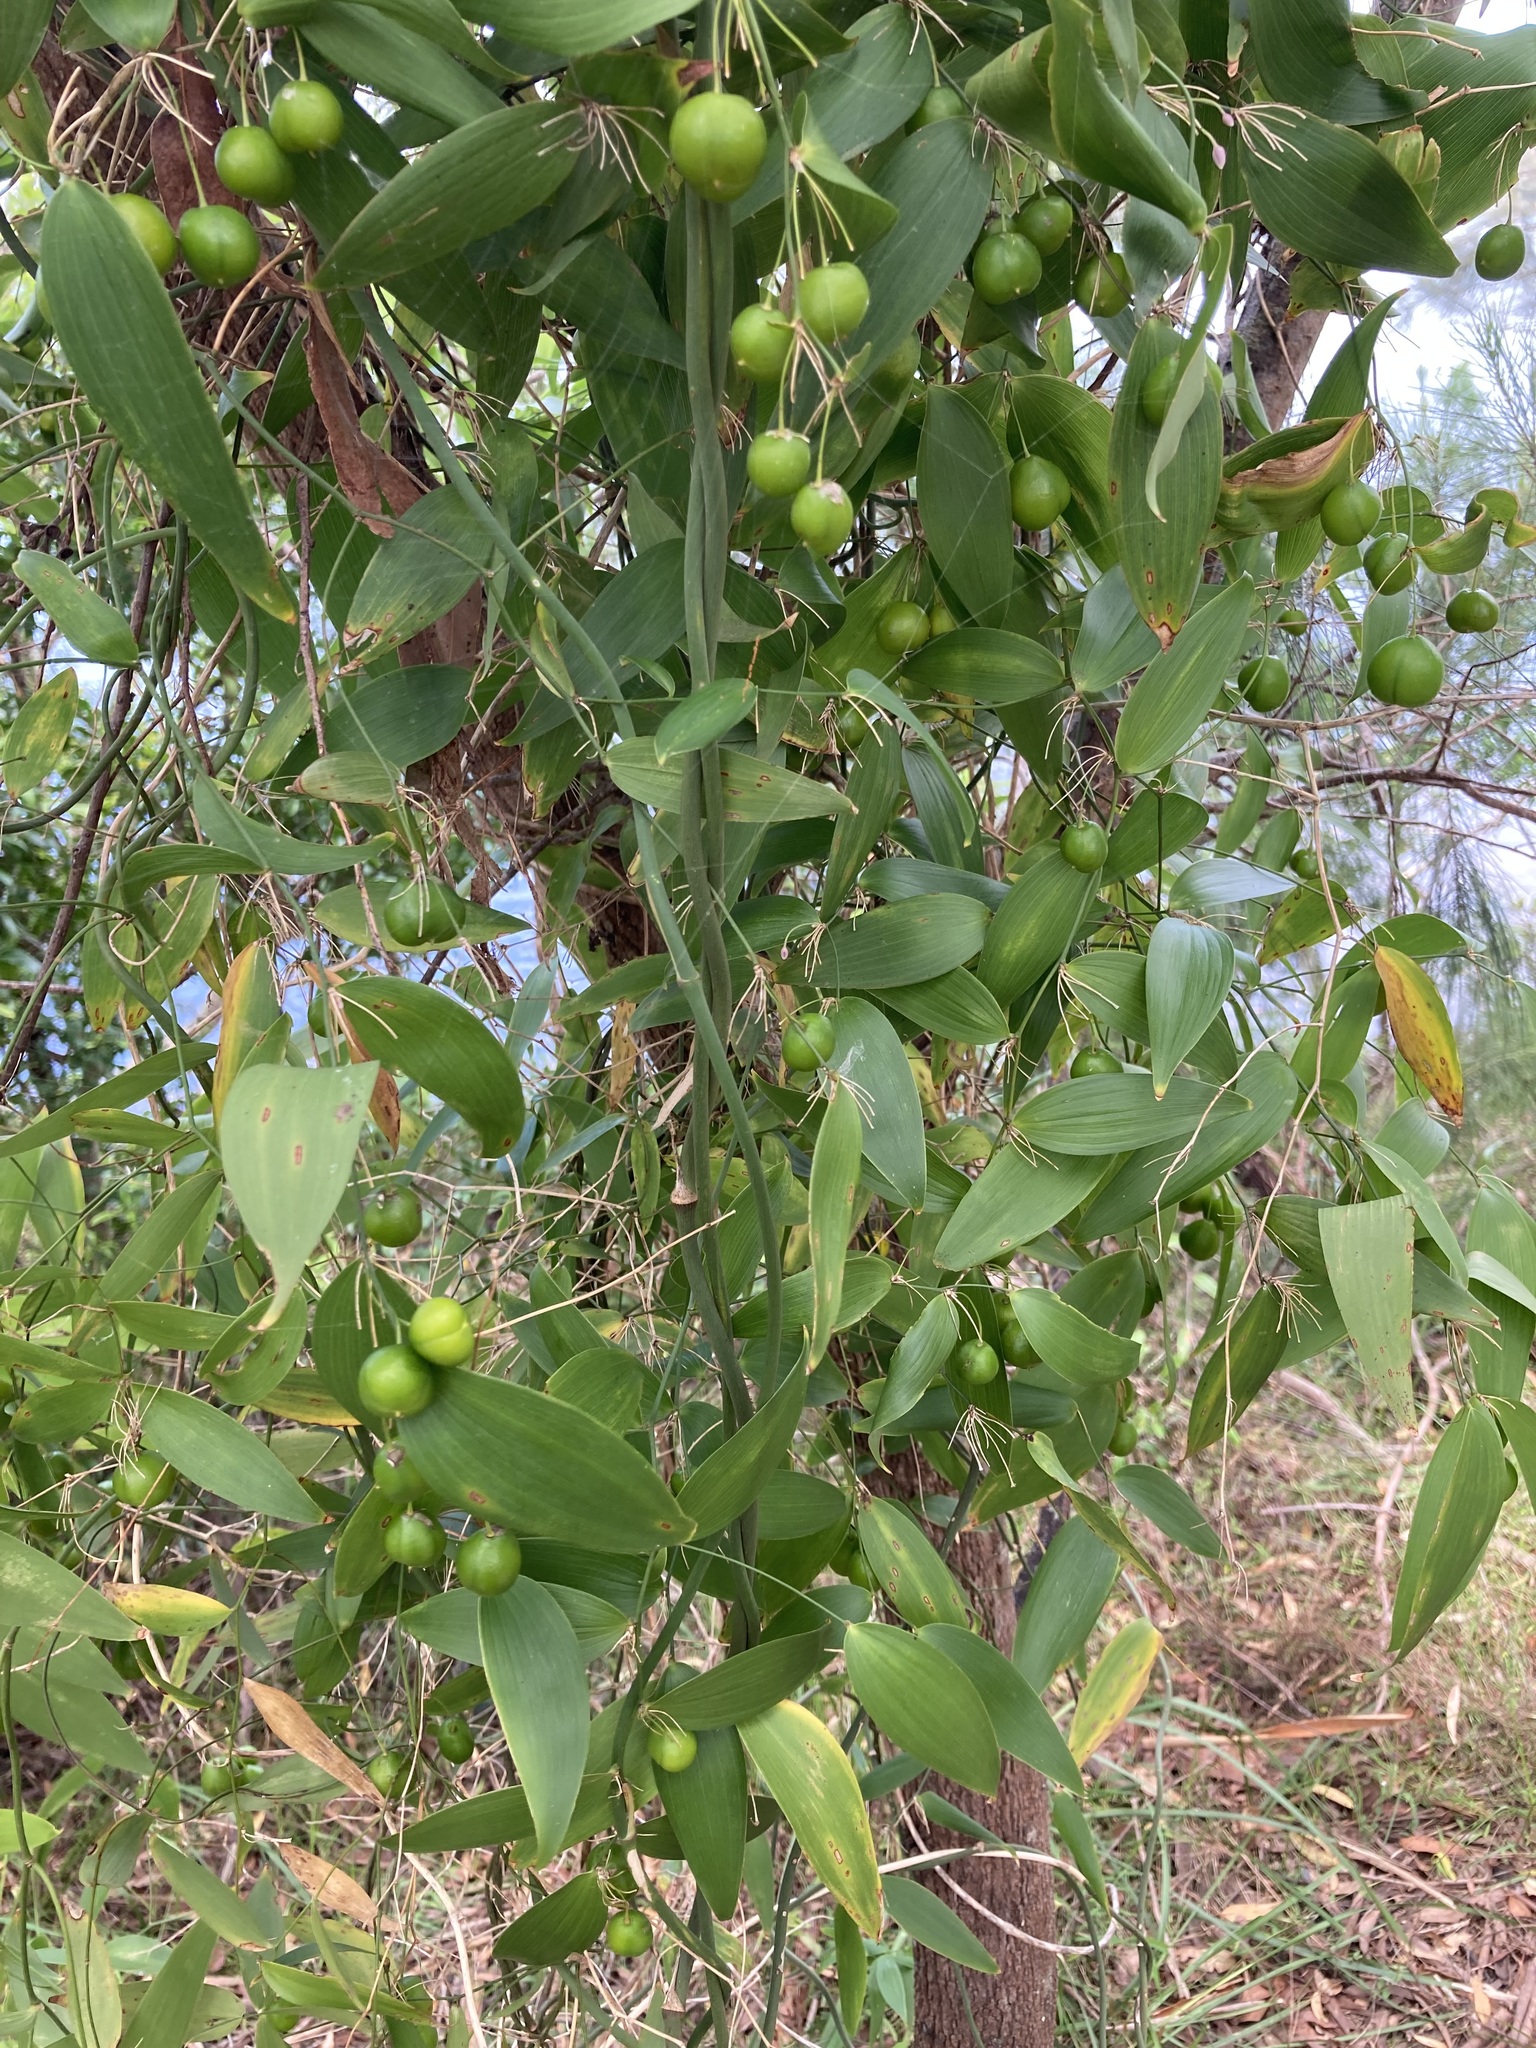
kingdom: Plantae
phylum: Tracheophyta
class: Liliopsida
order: Asparagales
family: Asparagaceae
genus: Eustrephus
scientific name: Eustrephus latifolius
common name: Orangevine
